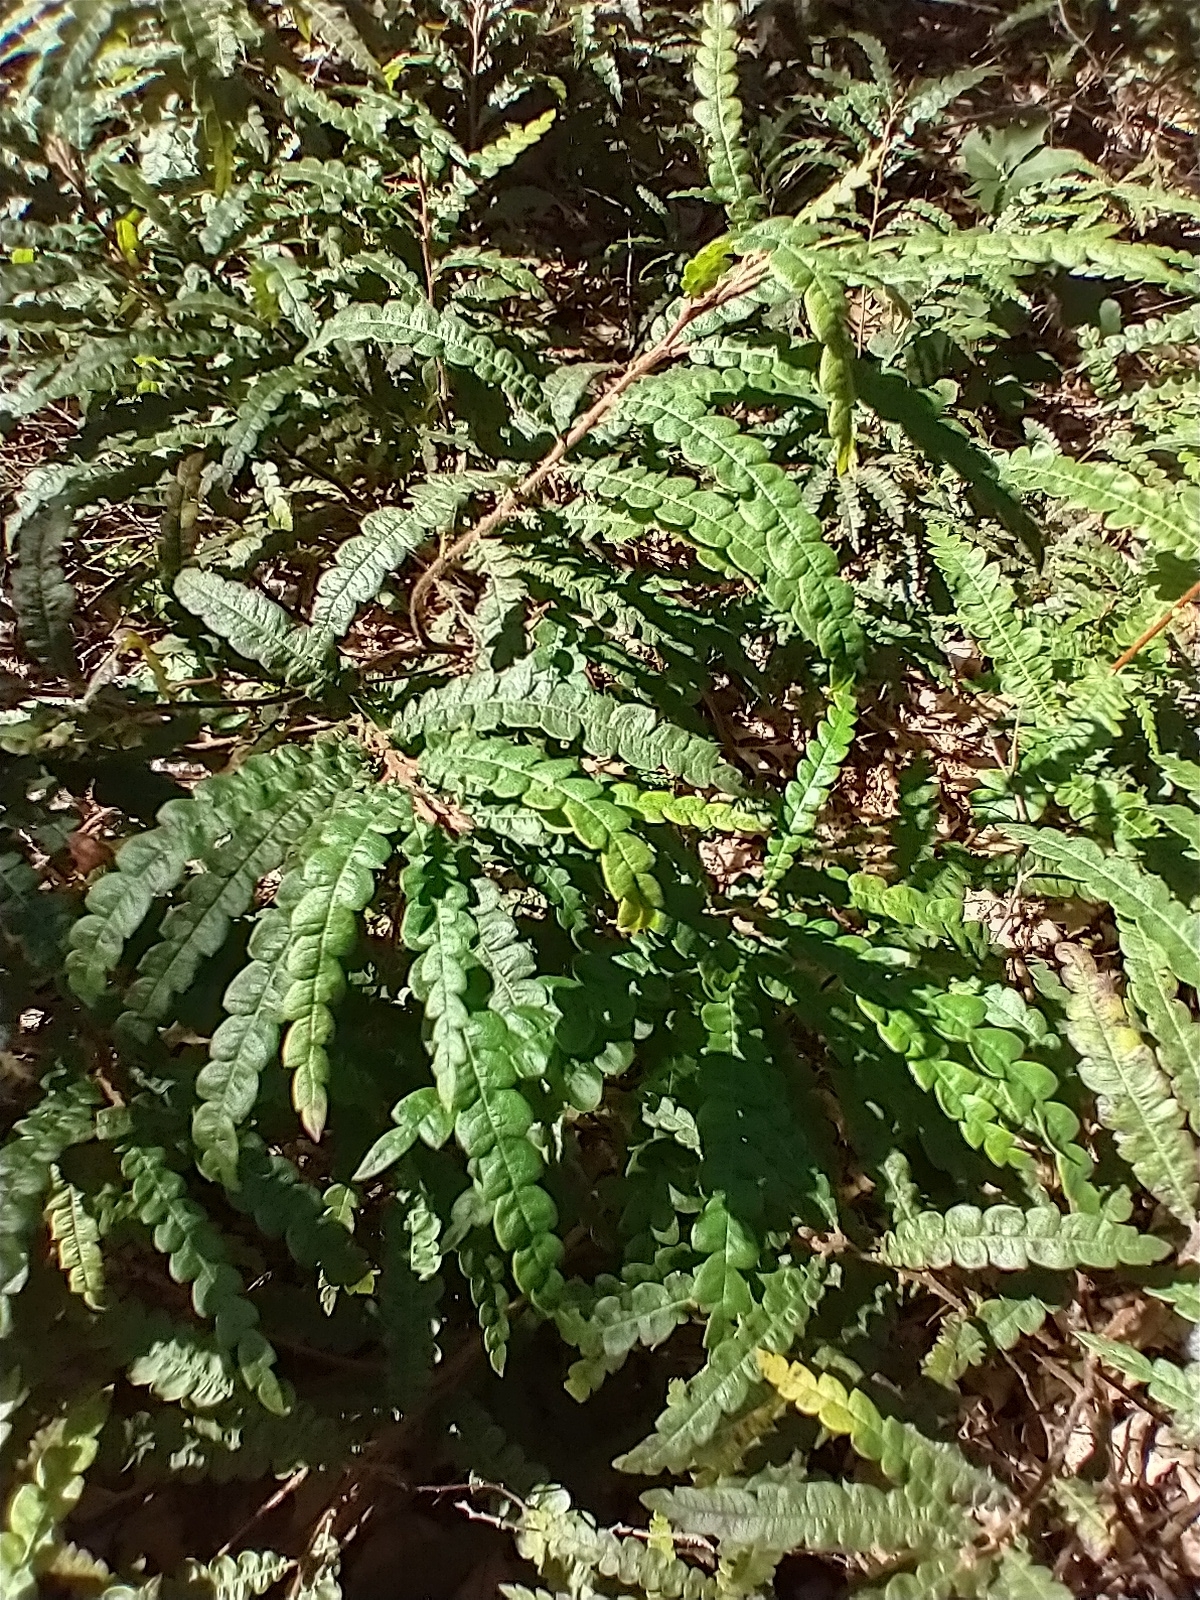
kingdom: Plantae
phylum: Tracheophyta
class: Magnoliopsida
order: Fagales
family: Myricaceae
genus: Comptonia
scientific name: Comptonia peregrina
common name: Sweet-fern
